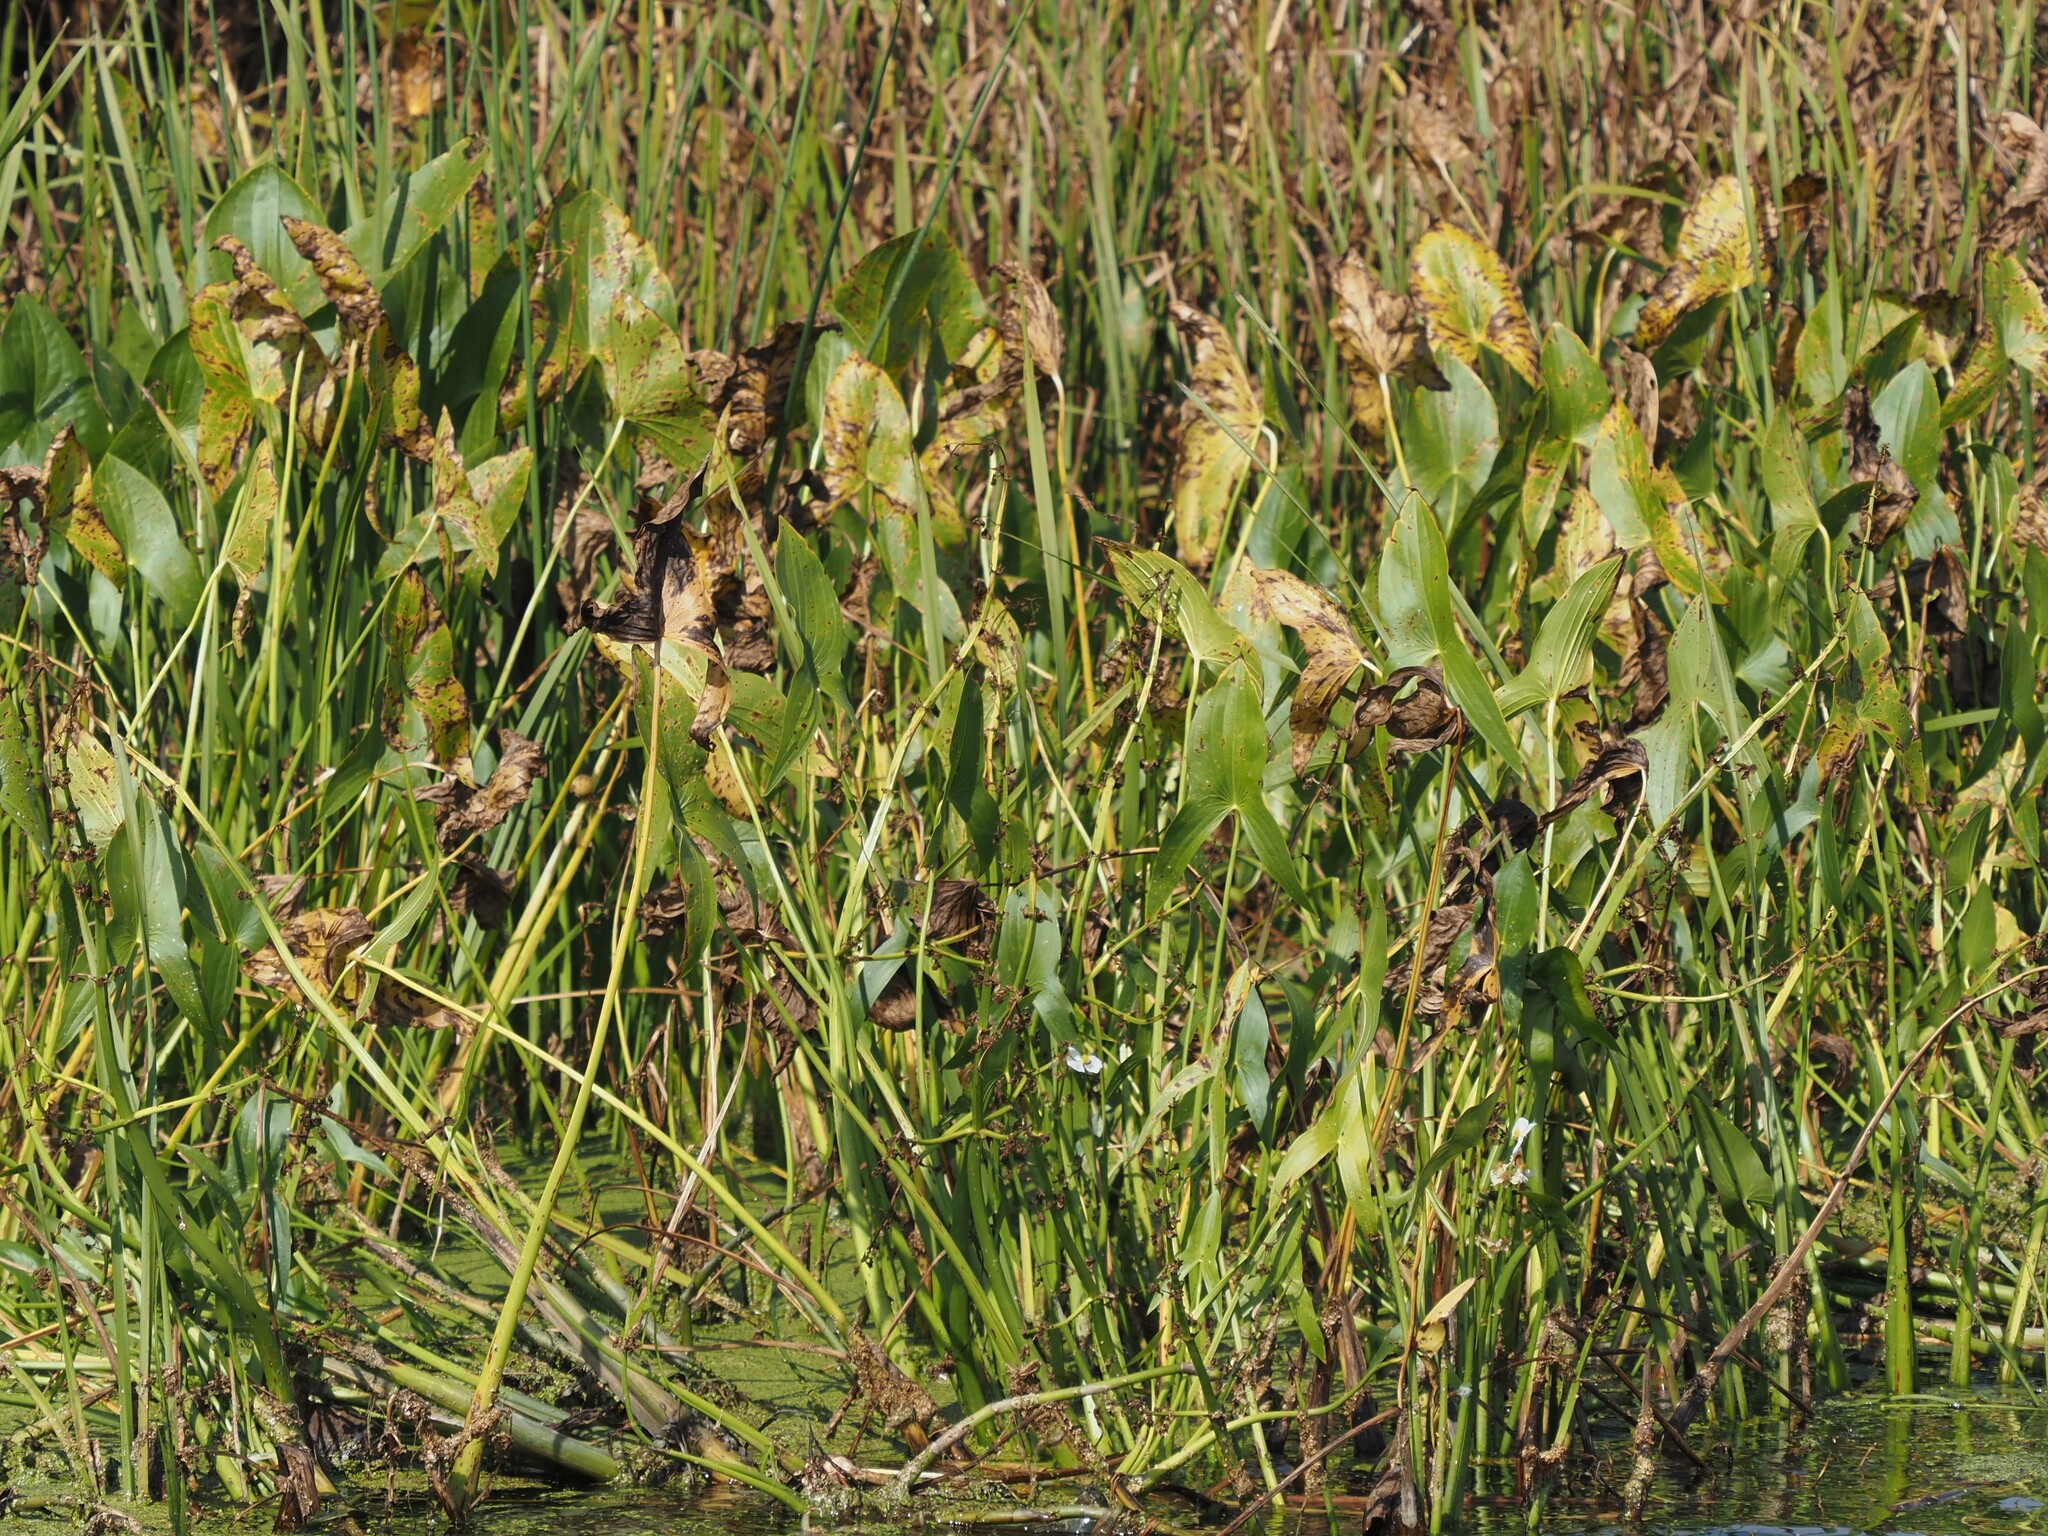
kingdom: Plantae
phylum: Tracheophyta
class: Liliopsida
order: Alismatales
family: Alismataceae
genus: Sagittaria
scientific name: Sagittaria latifolia
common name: Duck-potato
